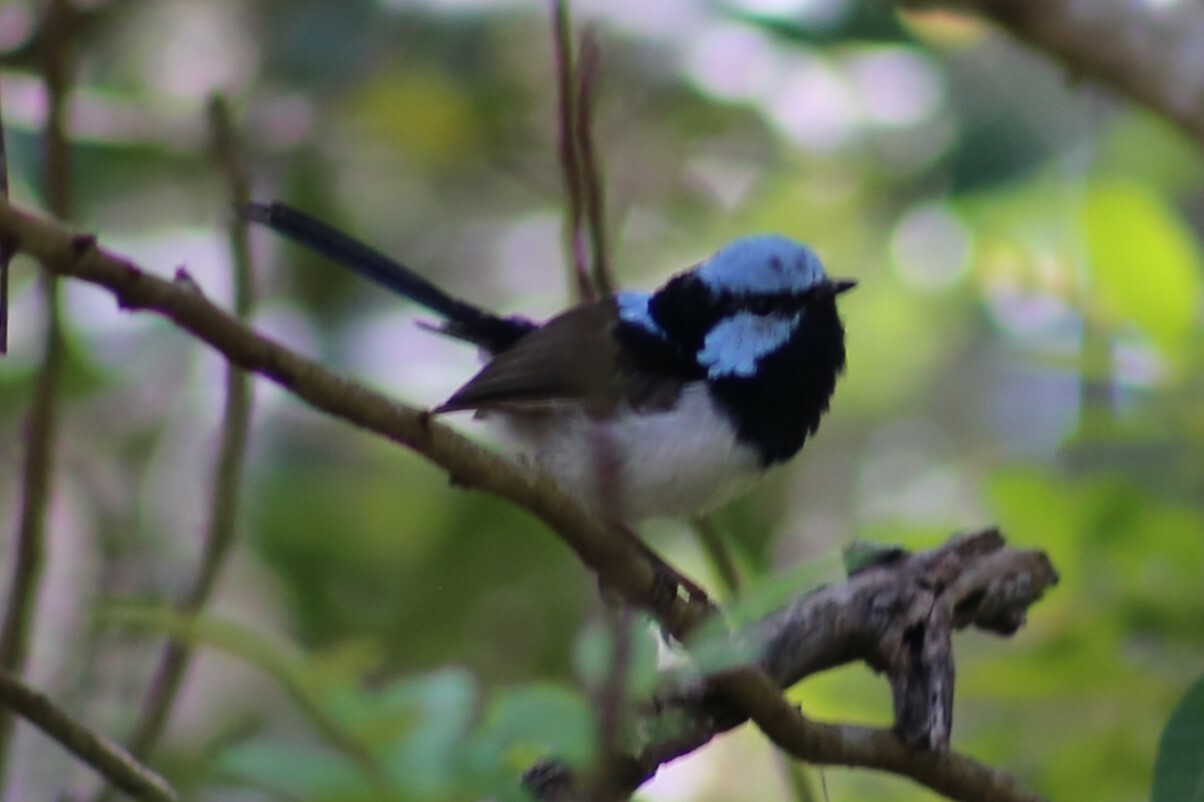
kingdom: Animalia
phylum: Chordata
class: Aves
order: Passeriformes
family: Maluridae
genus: Malurus
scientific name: Malurus cyaneus
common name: Superb fairywren
